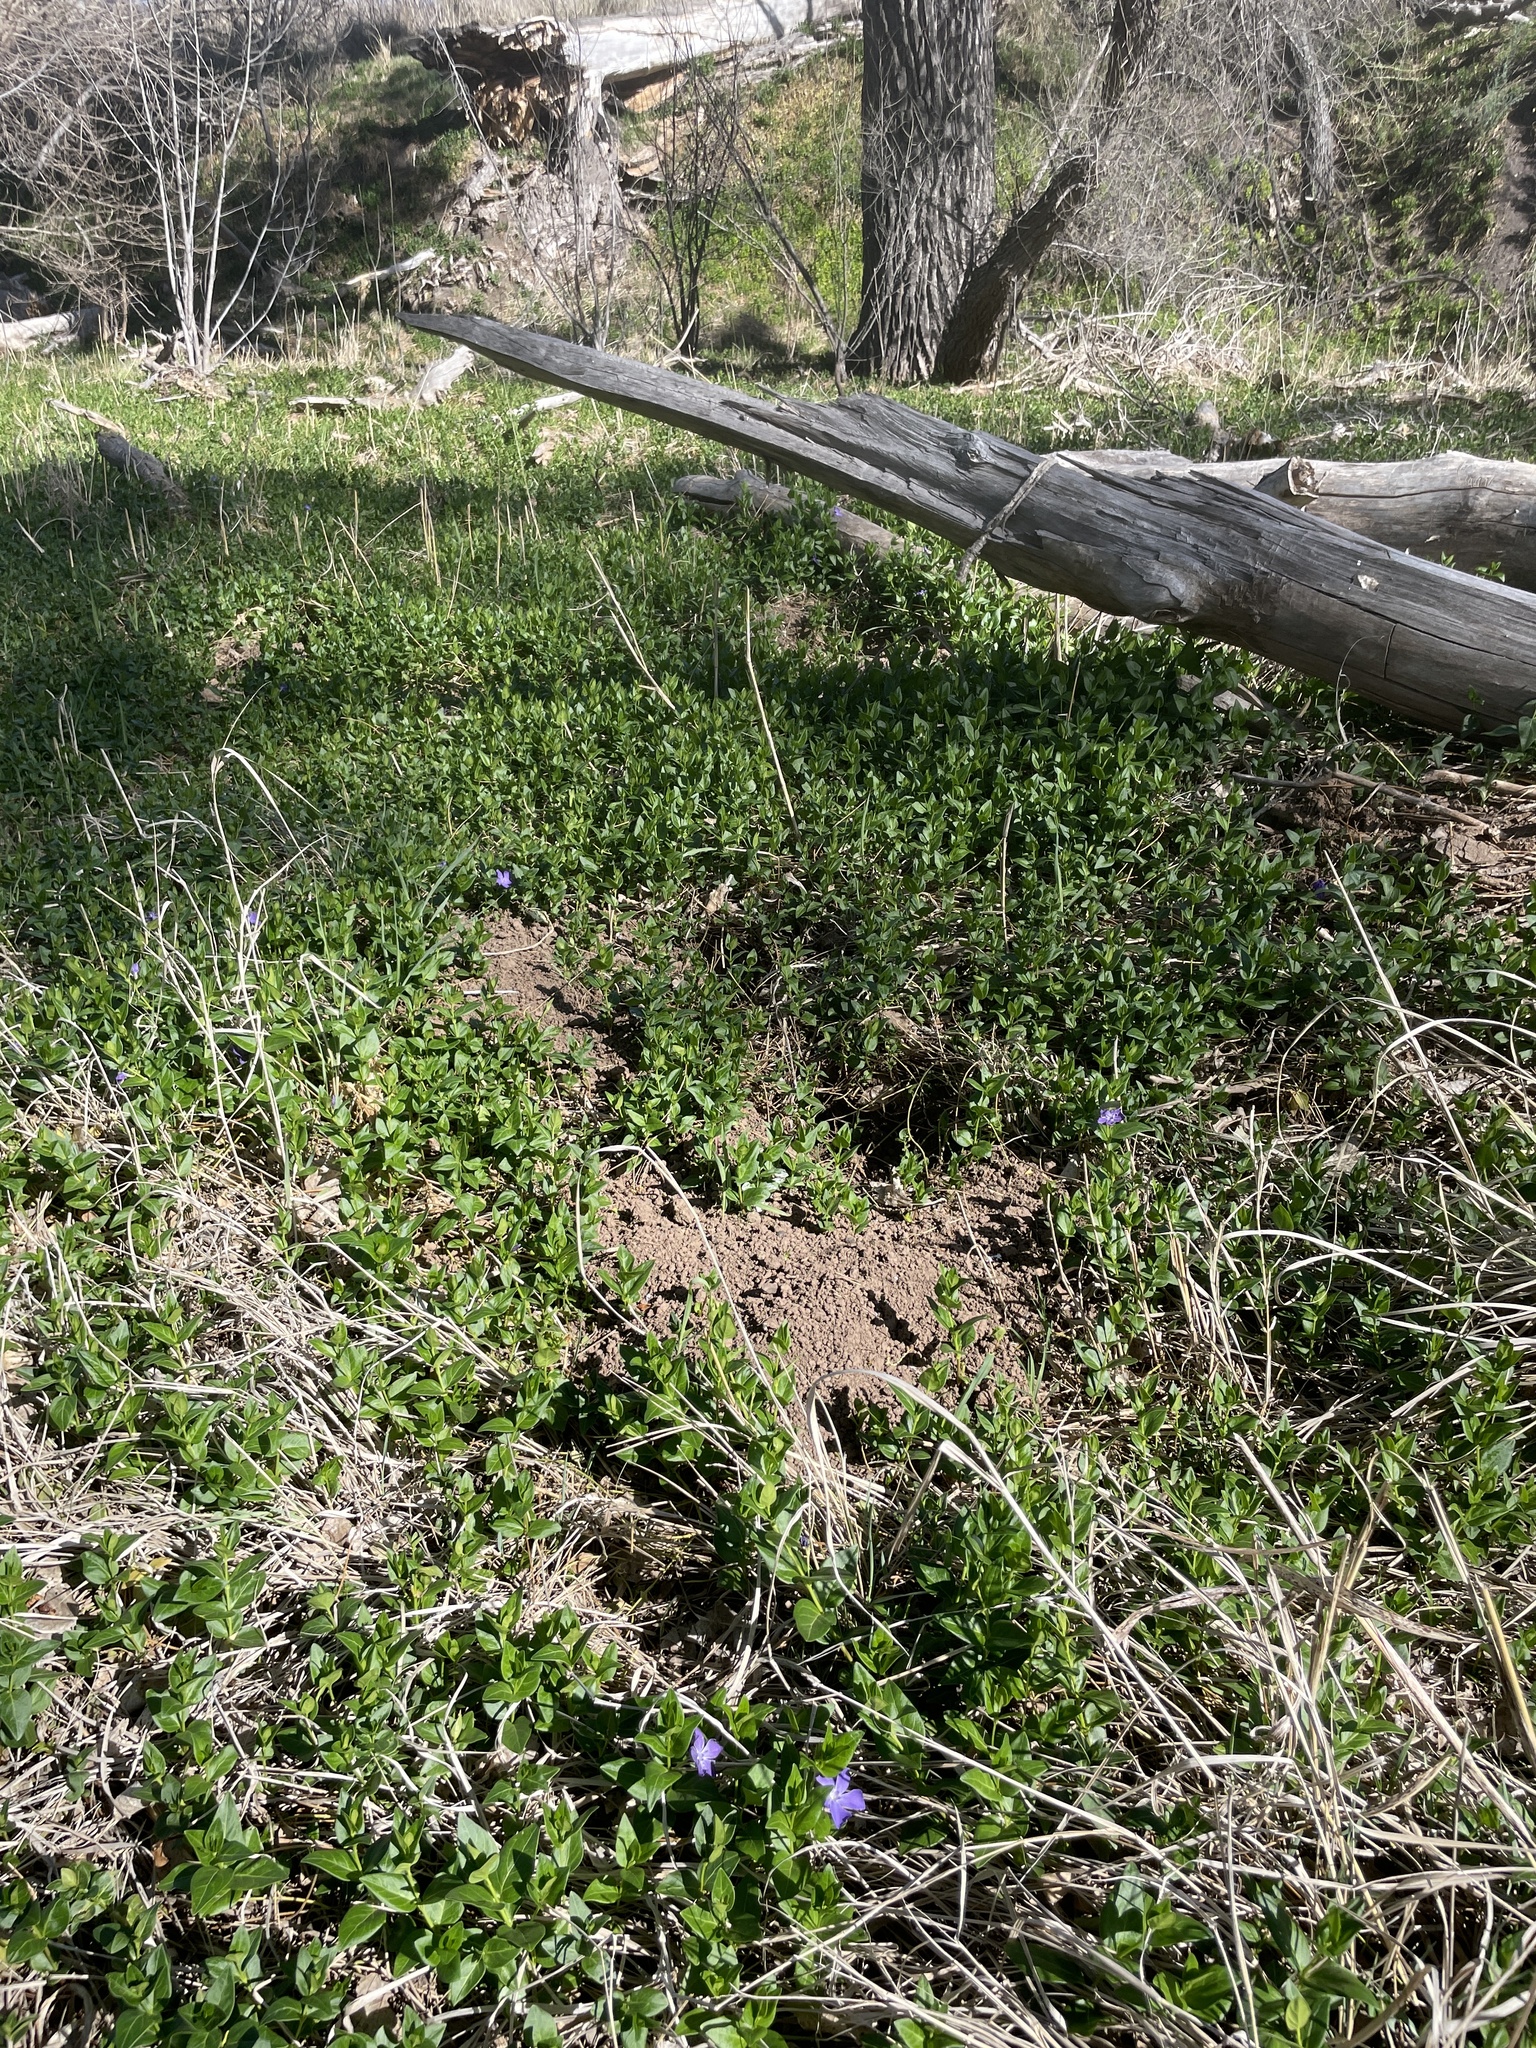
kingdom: Plantae
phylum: Tracheophyta
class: Magnoliopsida
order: Gentianales
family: Apocynaceae
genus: Vinca
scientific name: Vinca major
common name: Greater periwinkle
